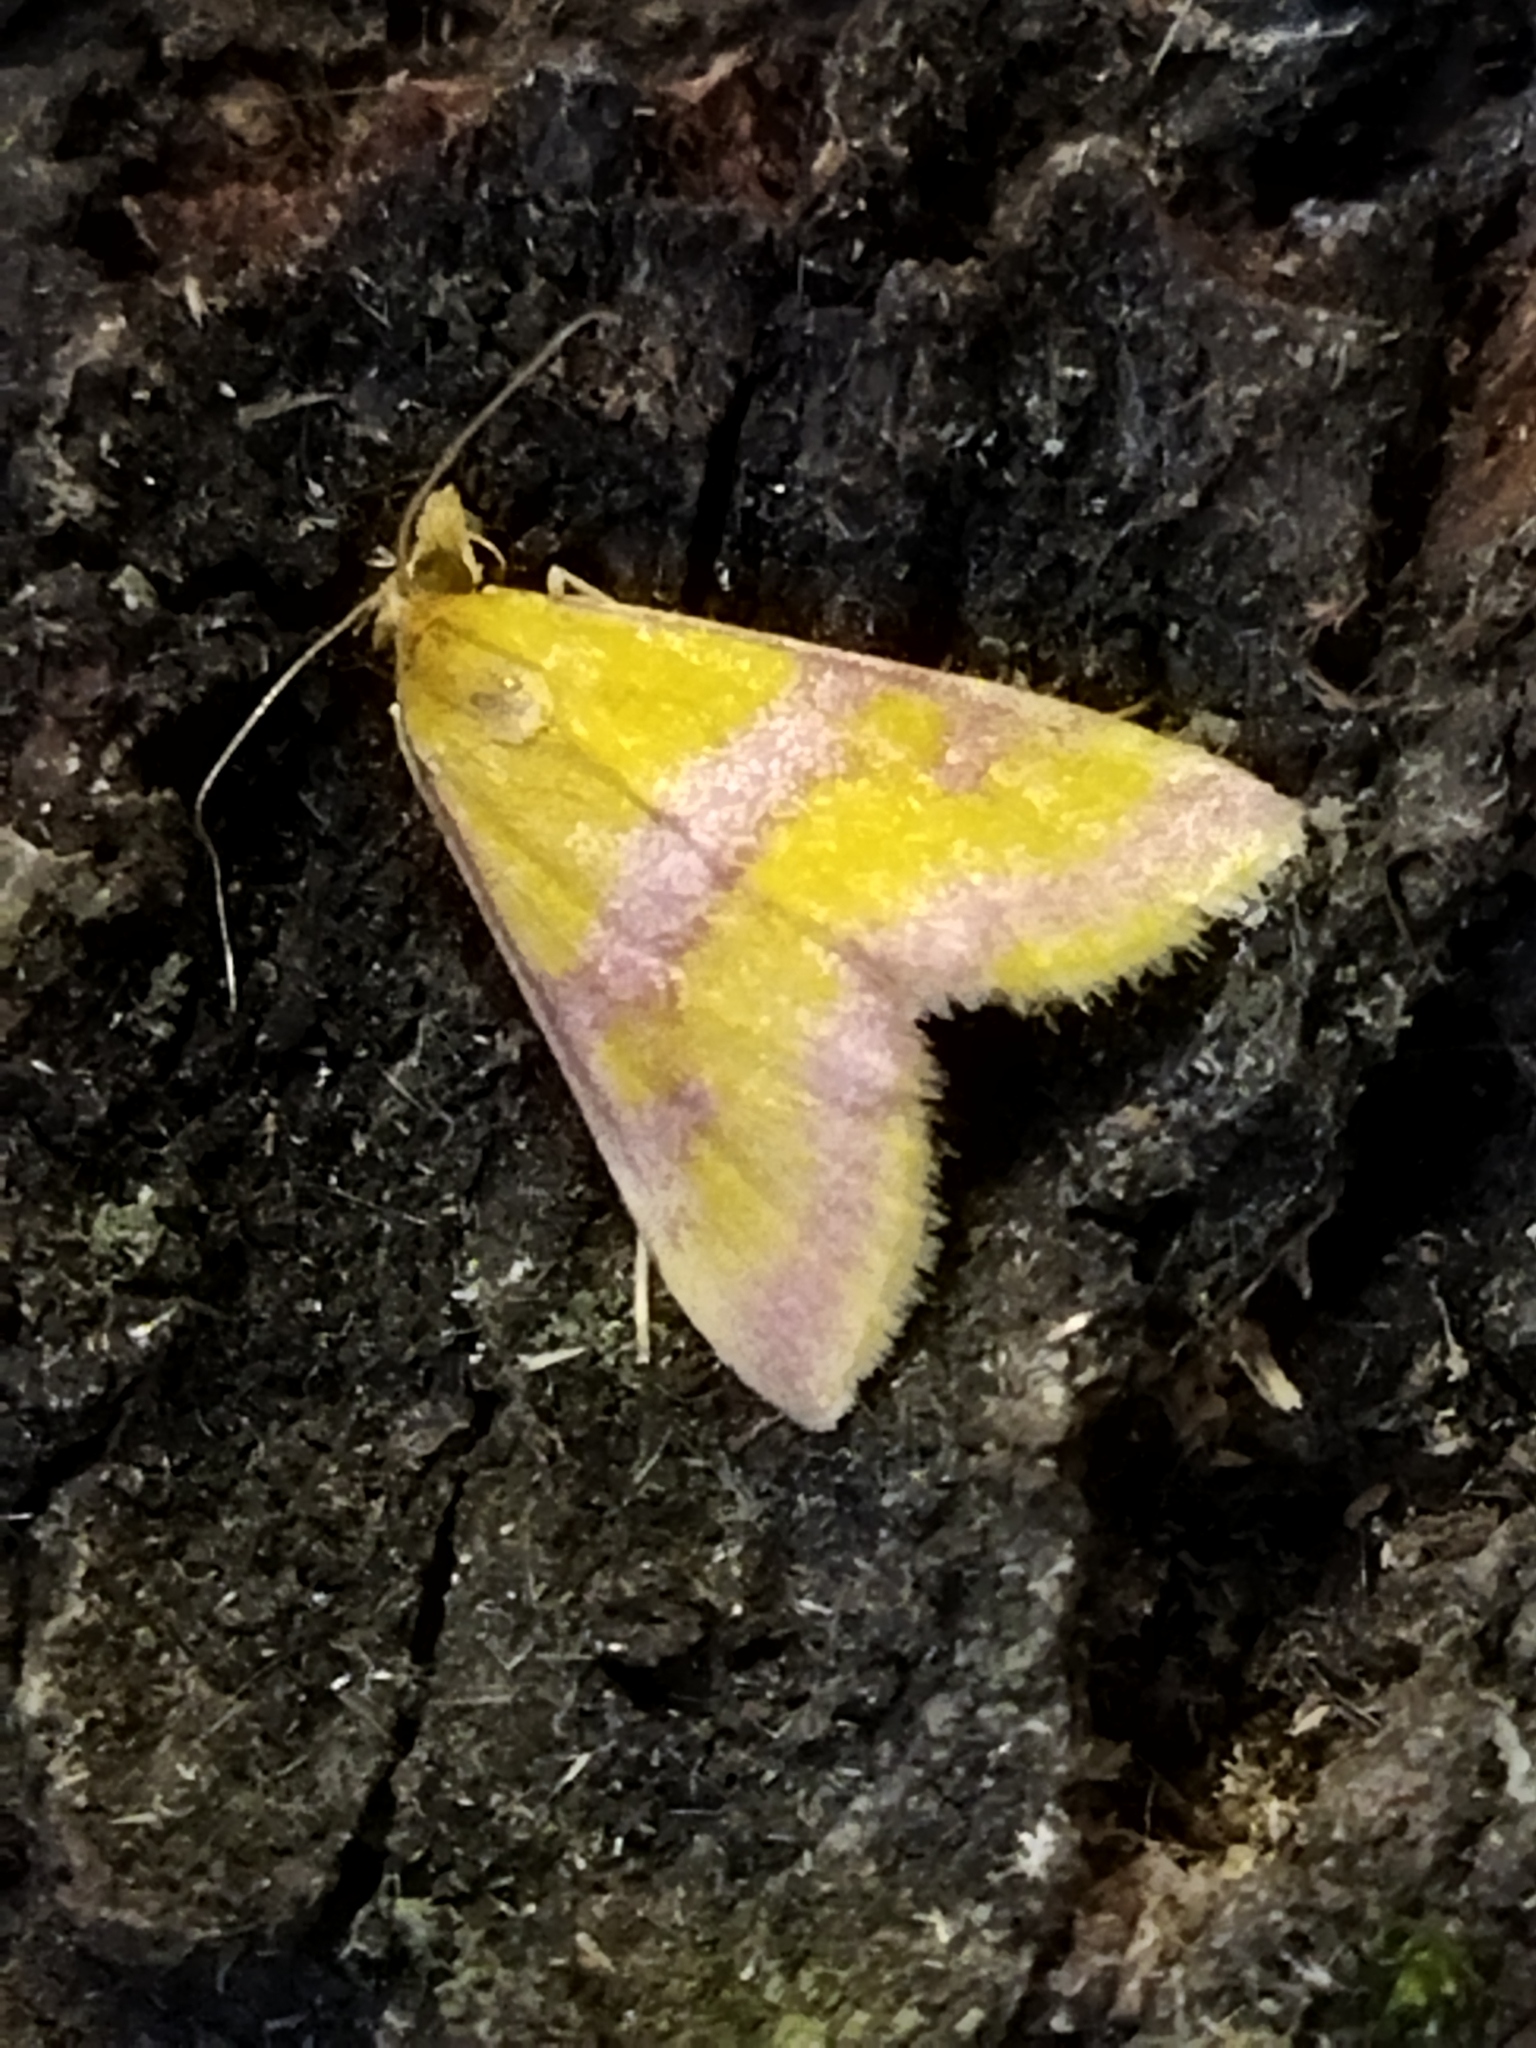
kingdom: Animalia
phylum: Arthropoda
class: Insecta
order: Lepidoptera
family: Crambidae
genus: Pyrausta
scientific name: Pyrausta sanguinalis
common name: Scarce crimson and gold
